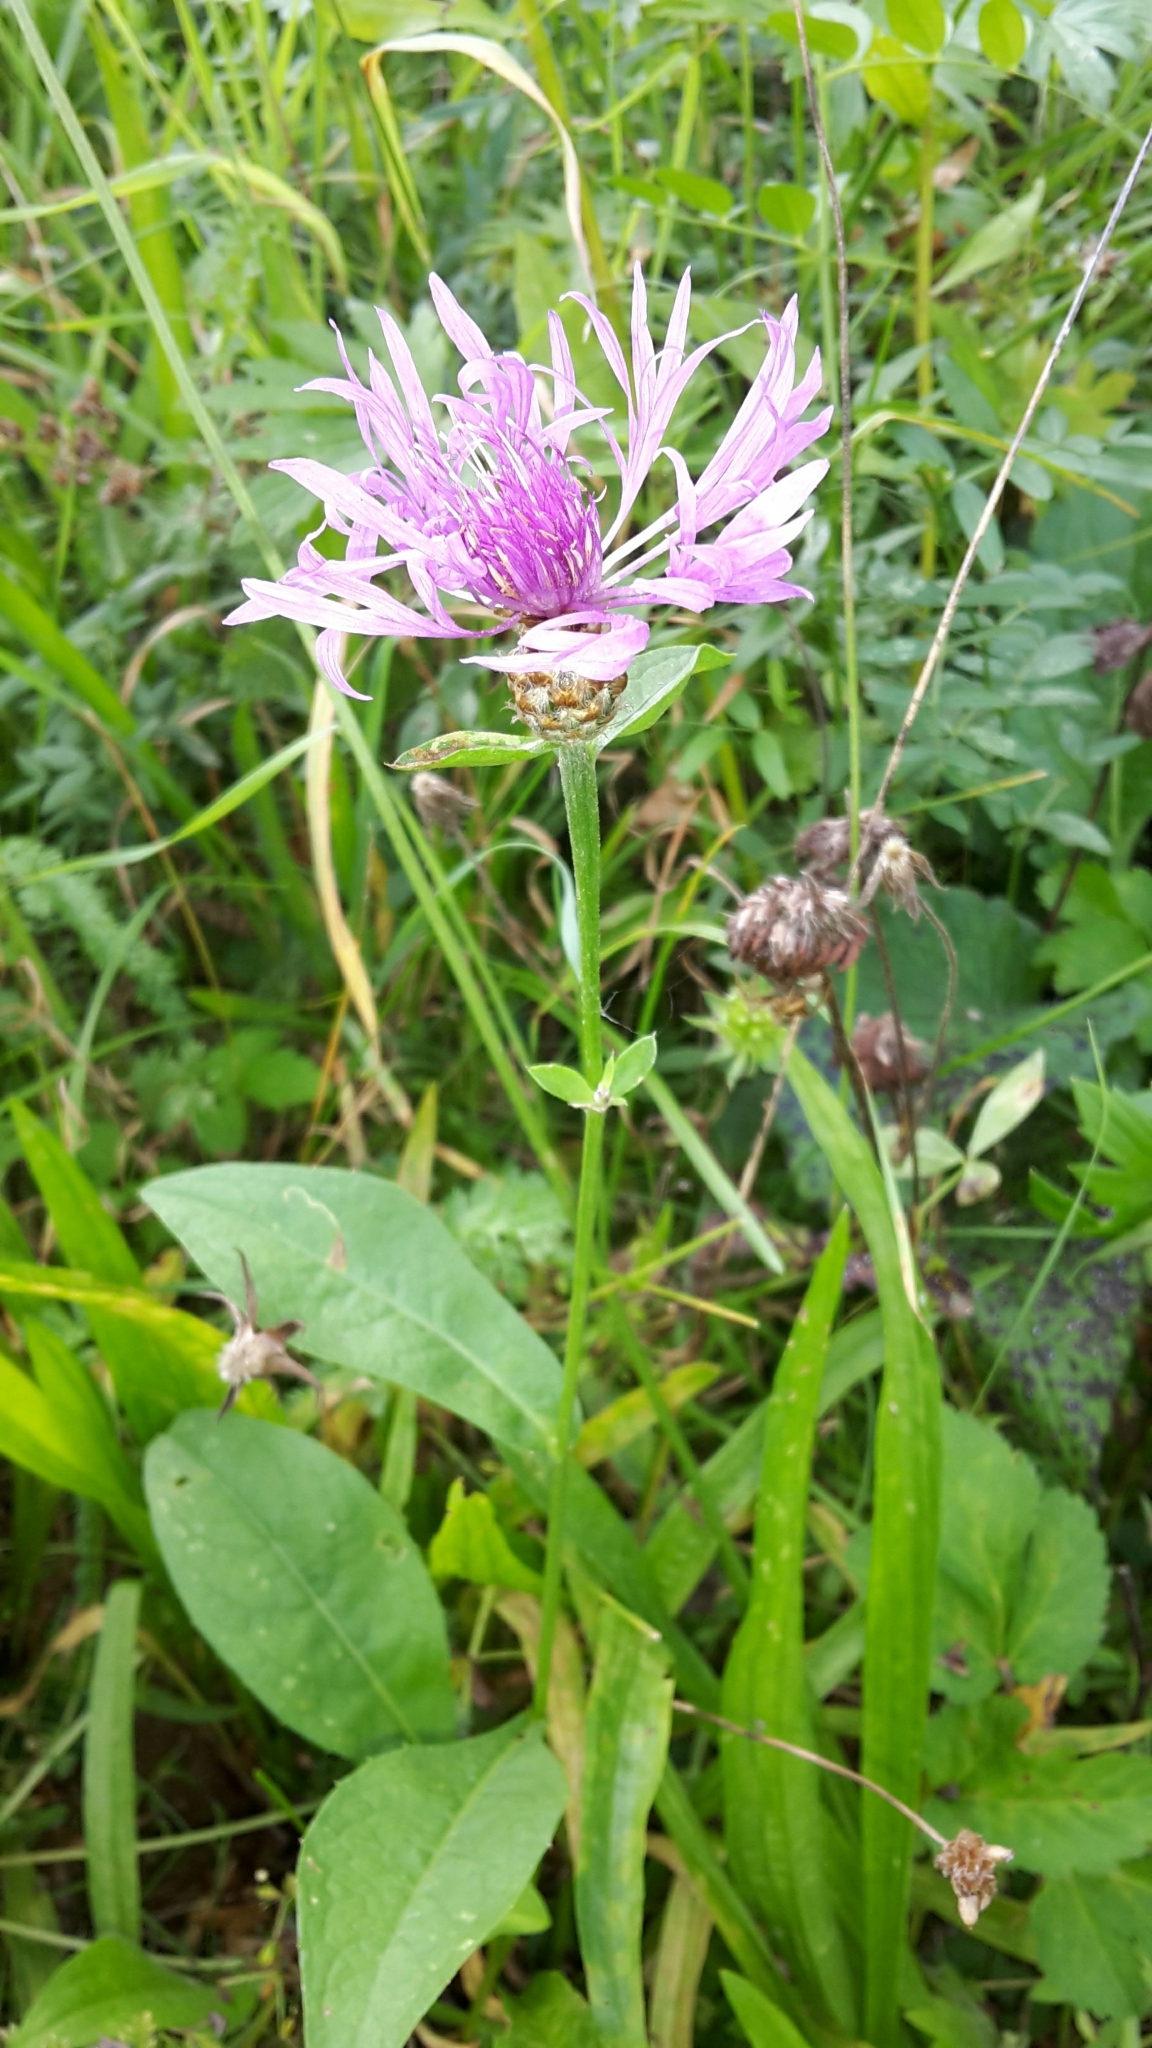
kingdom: Plantae
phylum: Tracheophyta
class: Magnoliopsida
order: Asterales
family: Asteraceae
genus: Centaurea
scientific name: Centaurea jacea
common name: Brown knapweed
